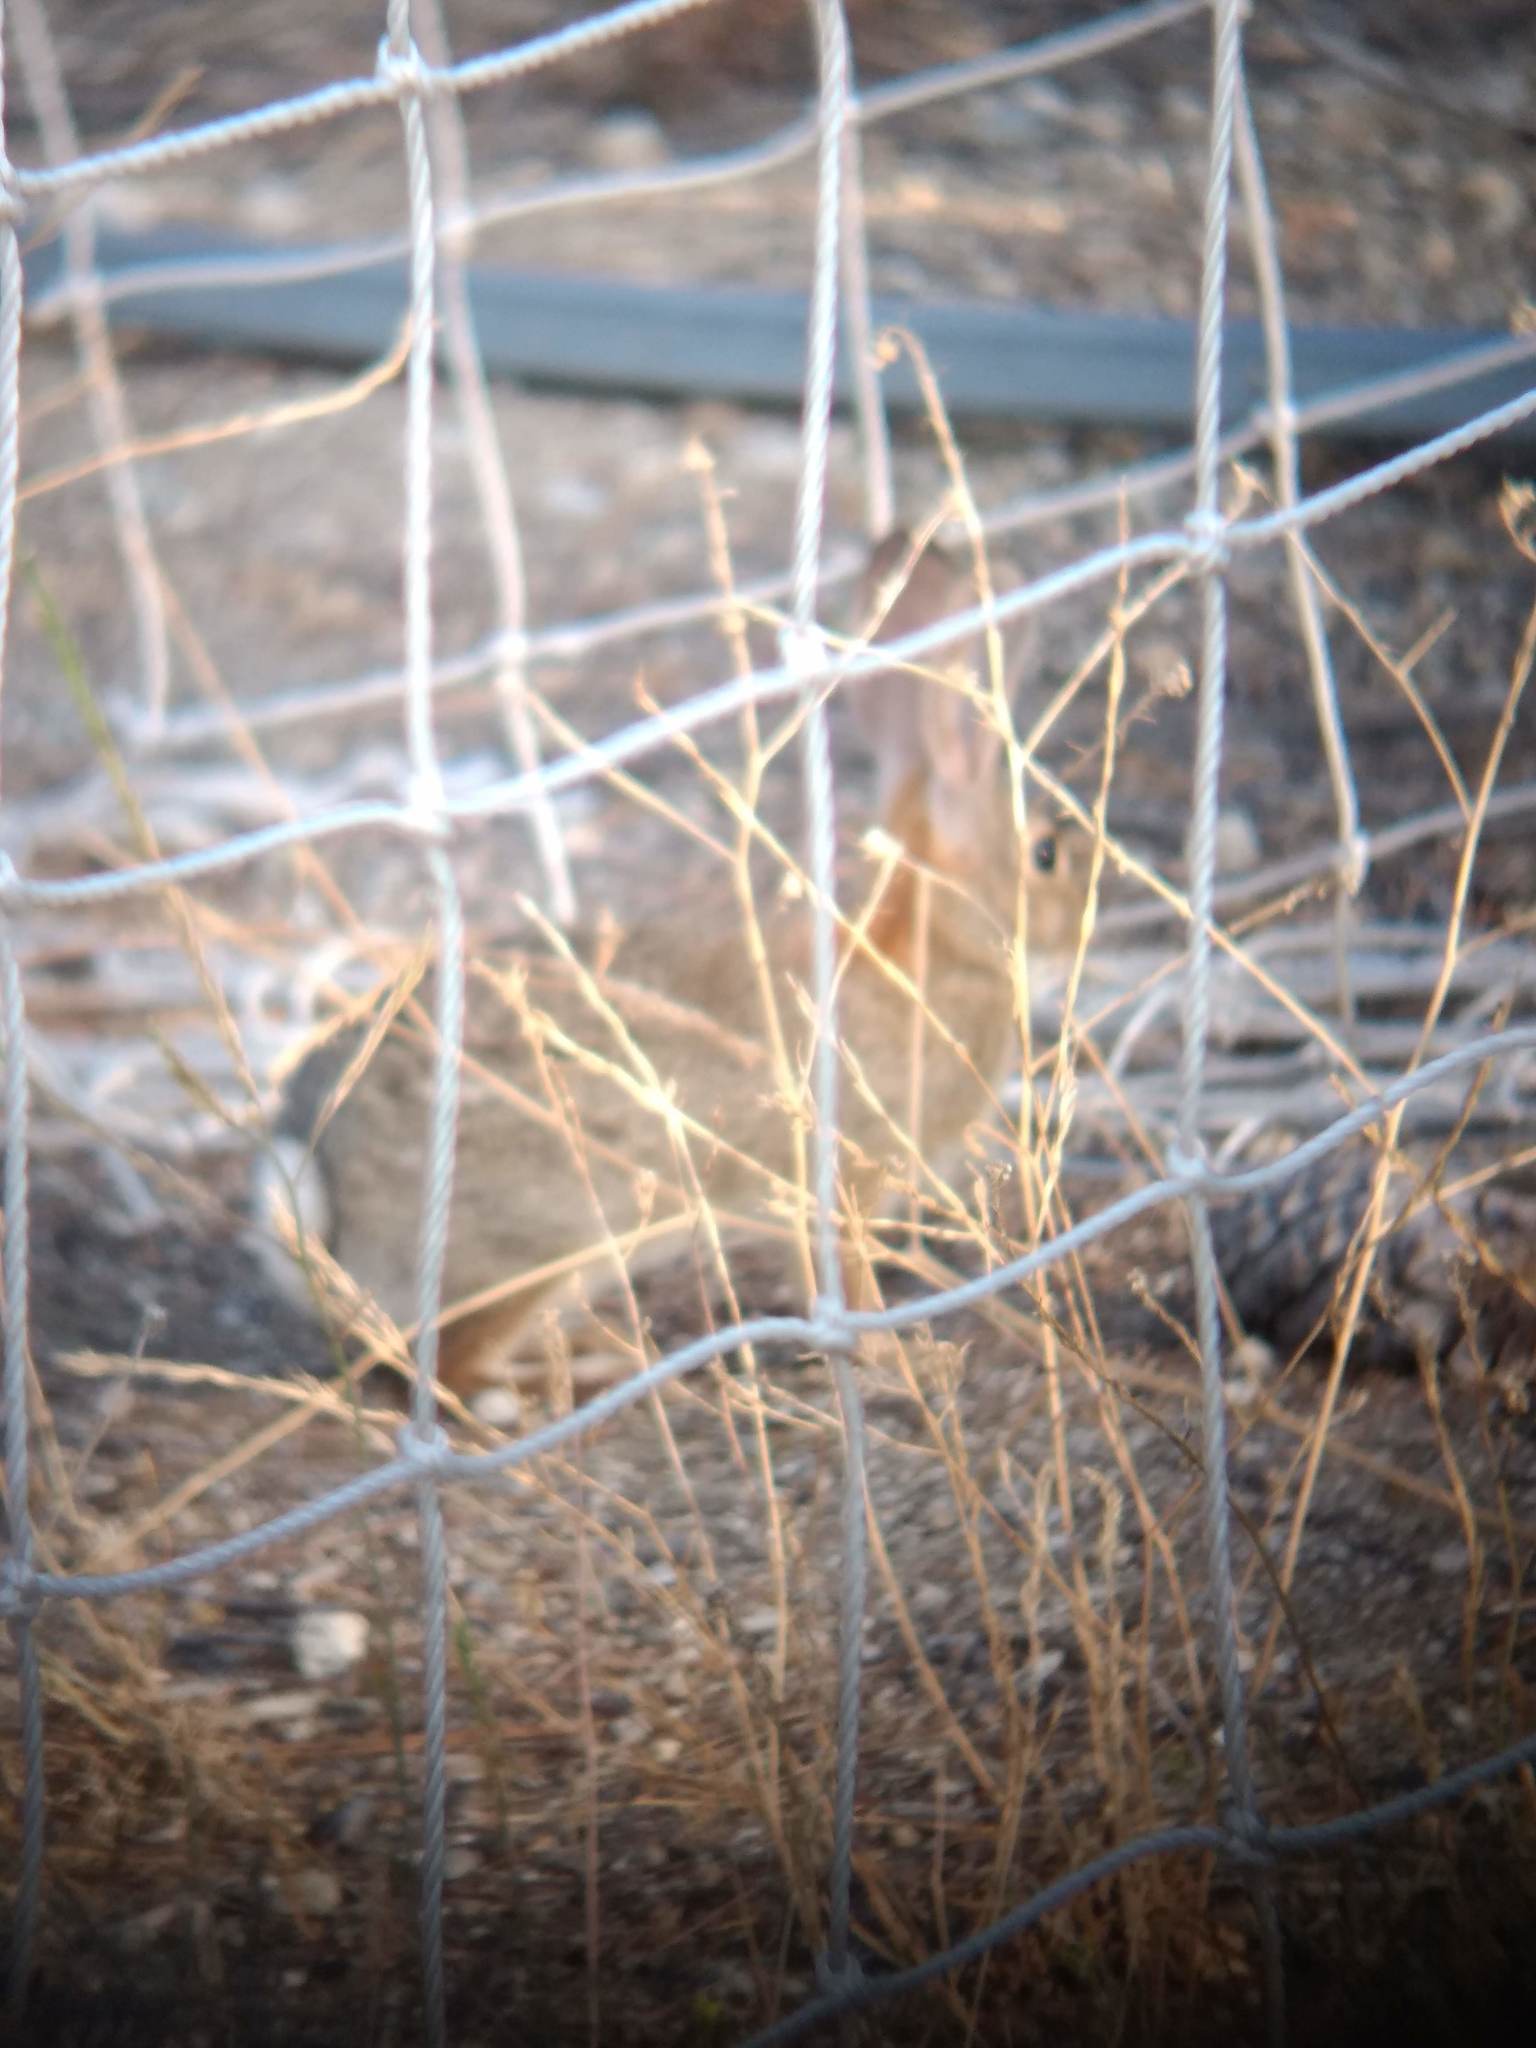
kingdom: Animalia
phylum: Chordata
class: Mammalia
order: Lagomorpha
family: Leporidae
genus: Sylvilagus
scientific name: Sylvilagus audubonii
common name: Desert cottontail
